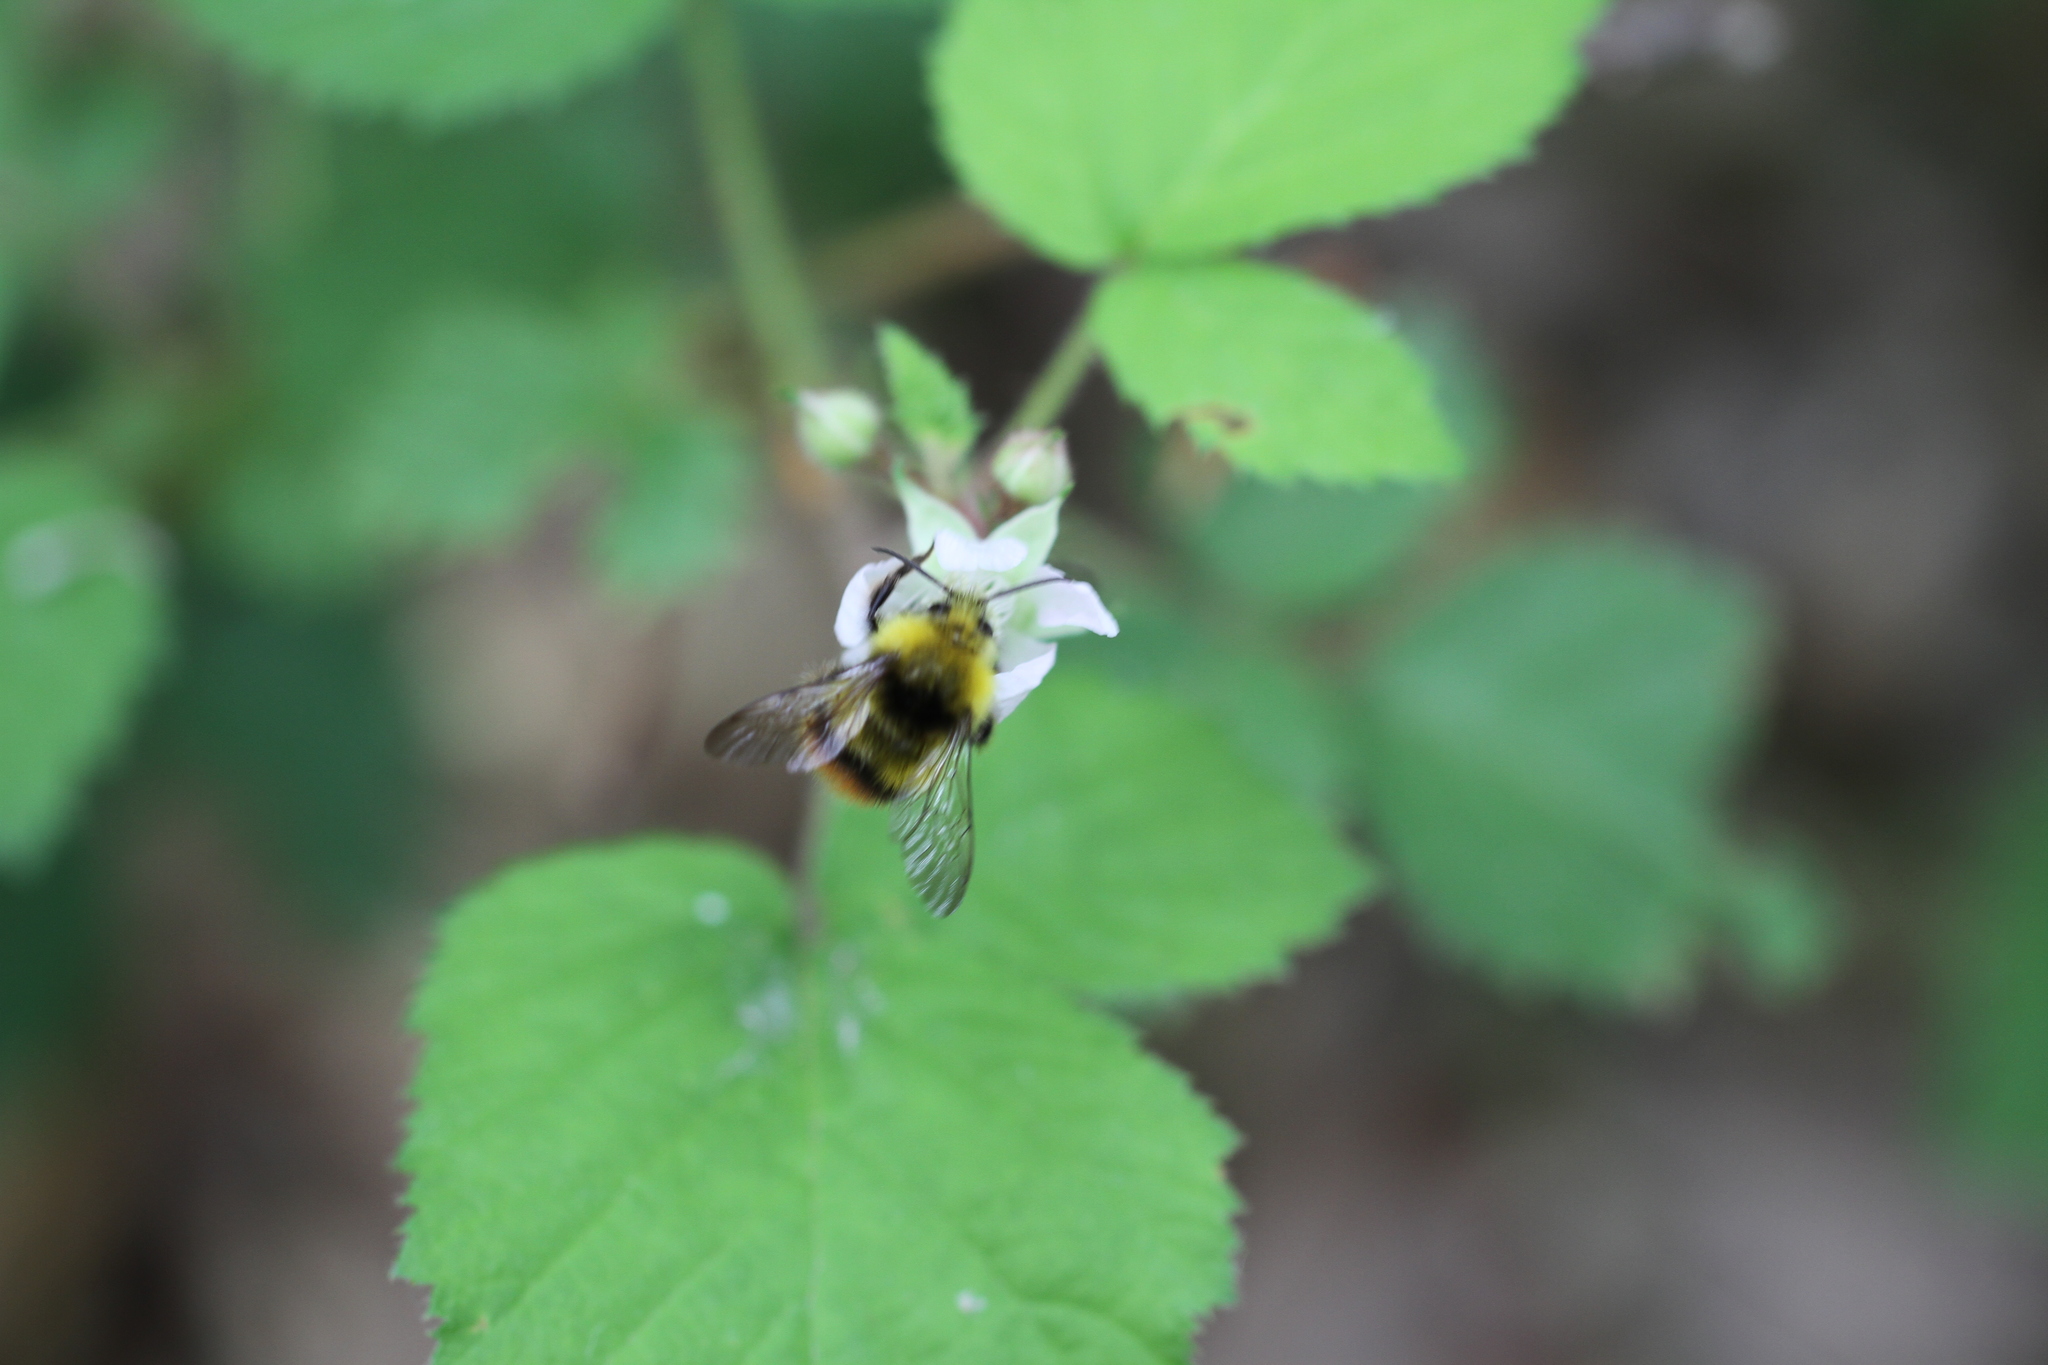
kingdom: Animalia
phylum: Arthropoda
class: Insecta
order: Hymenoptera
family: Apidae
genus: Bombus
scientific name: Bombus pratorum
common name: Early humble-bee
